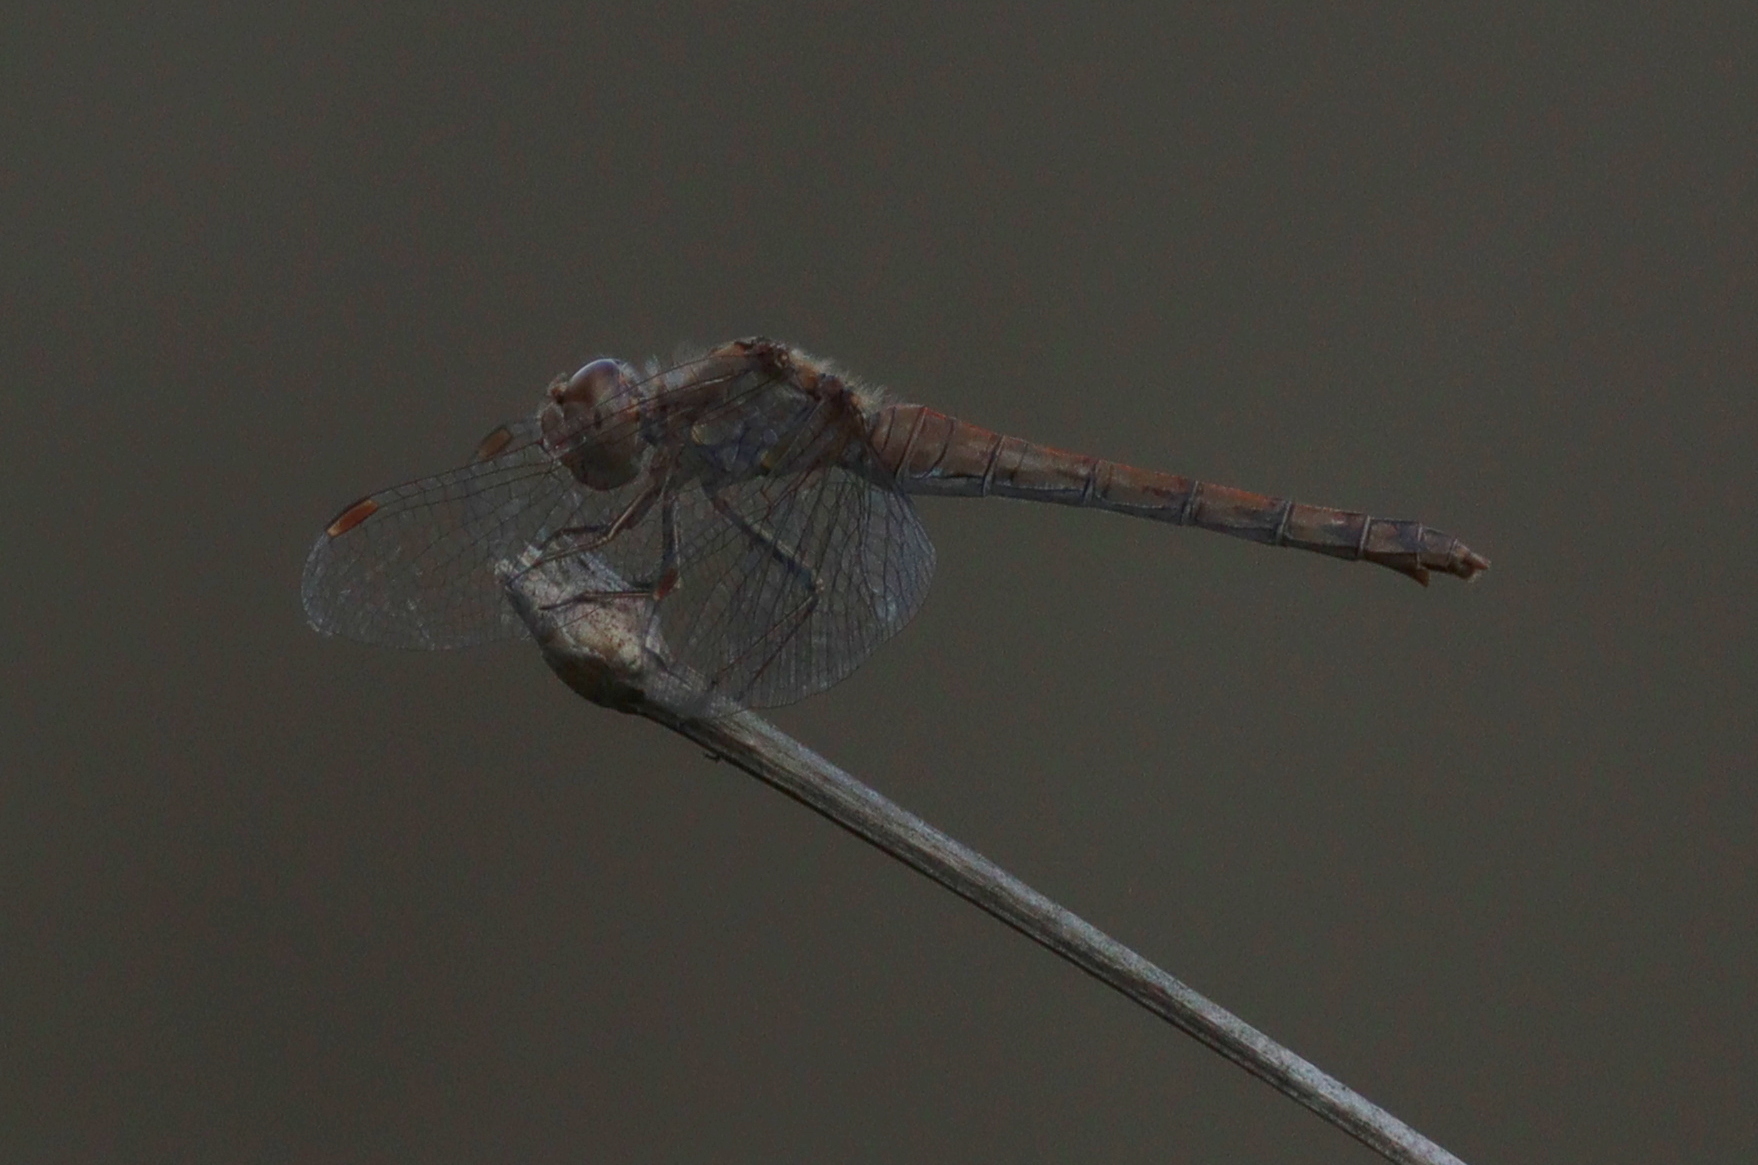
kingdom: Animalia
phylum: Arthropoda
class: Insecta
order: Odonata
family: Libellulidae
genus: Sympetrum
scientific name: Sympetrum striolatum
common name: Common darter
